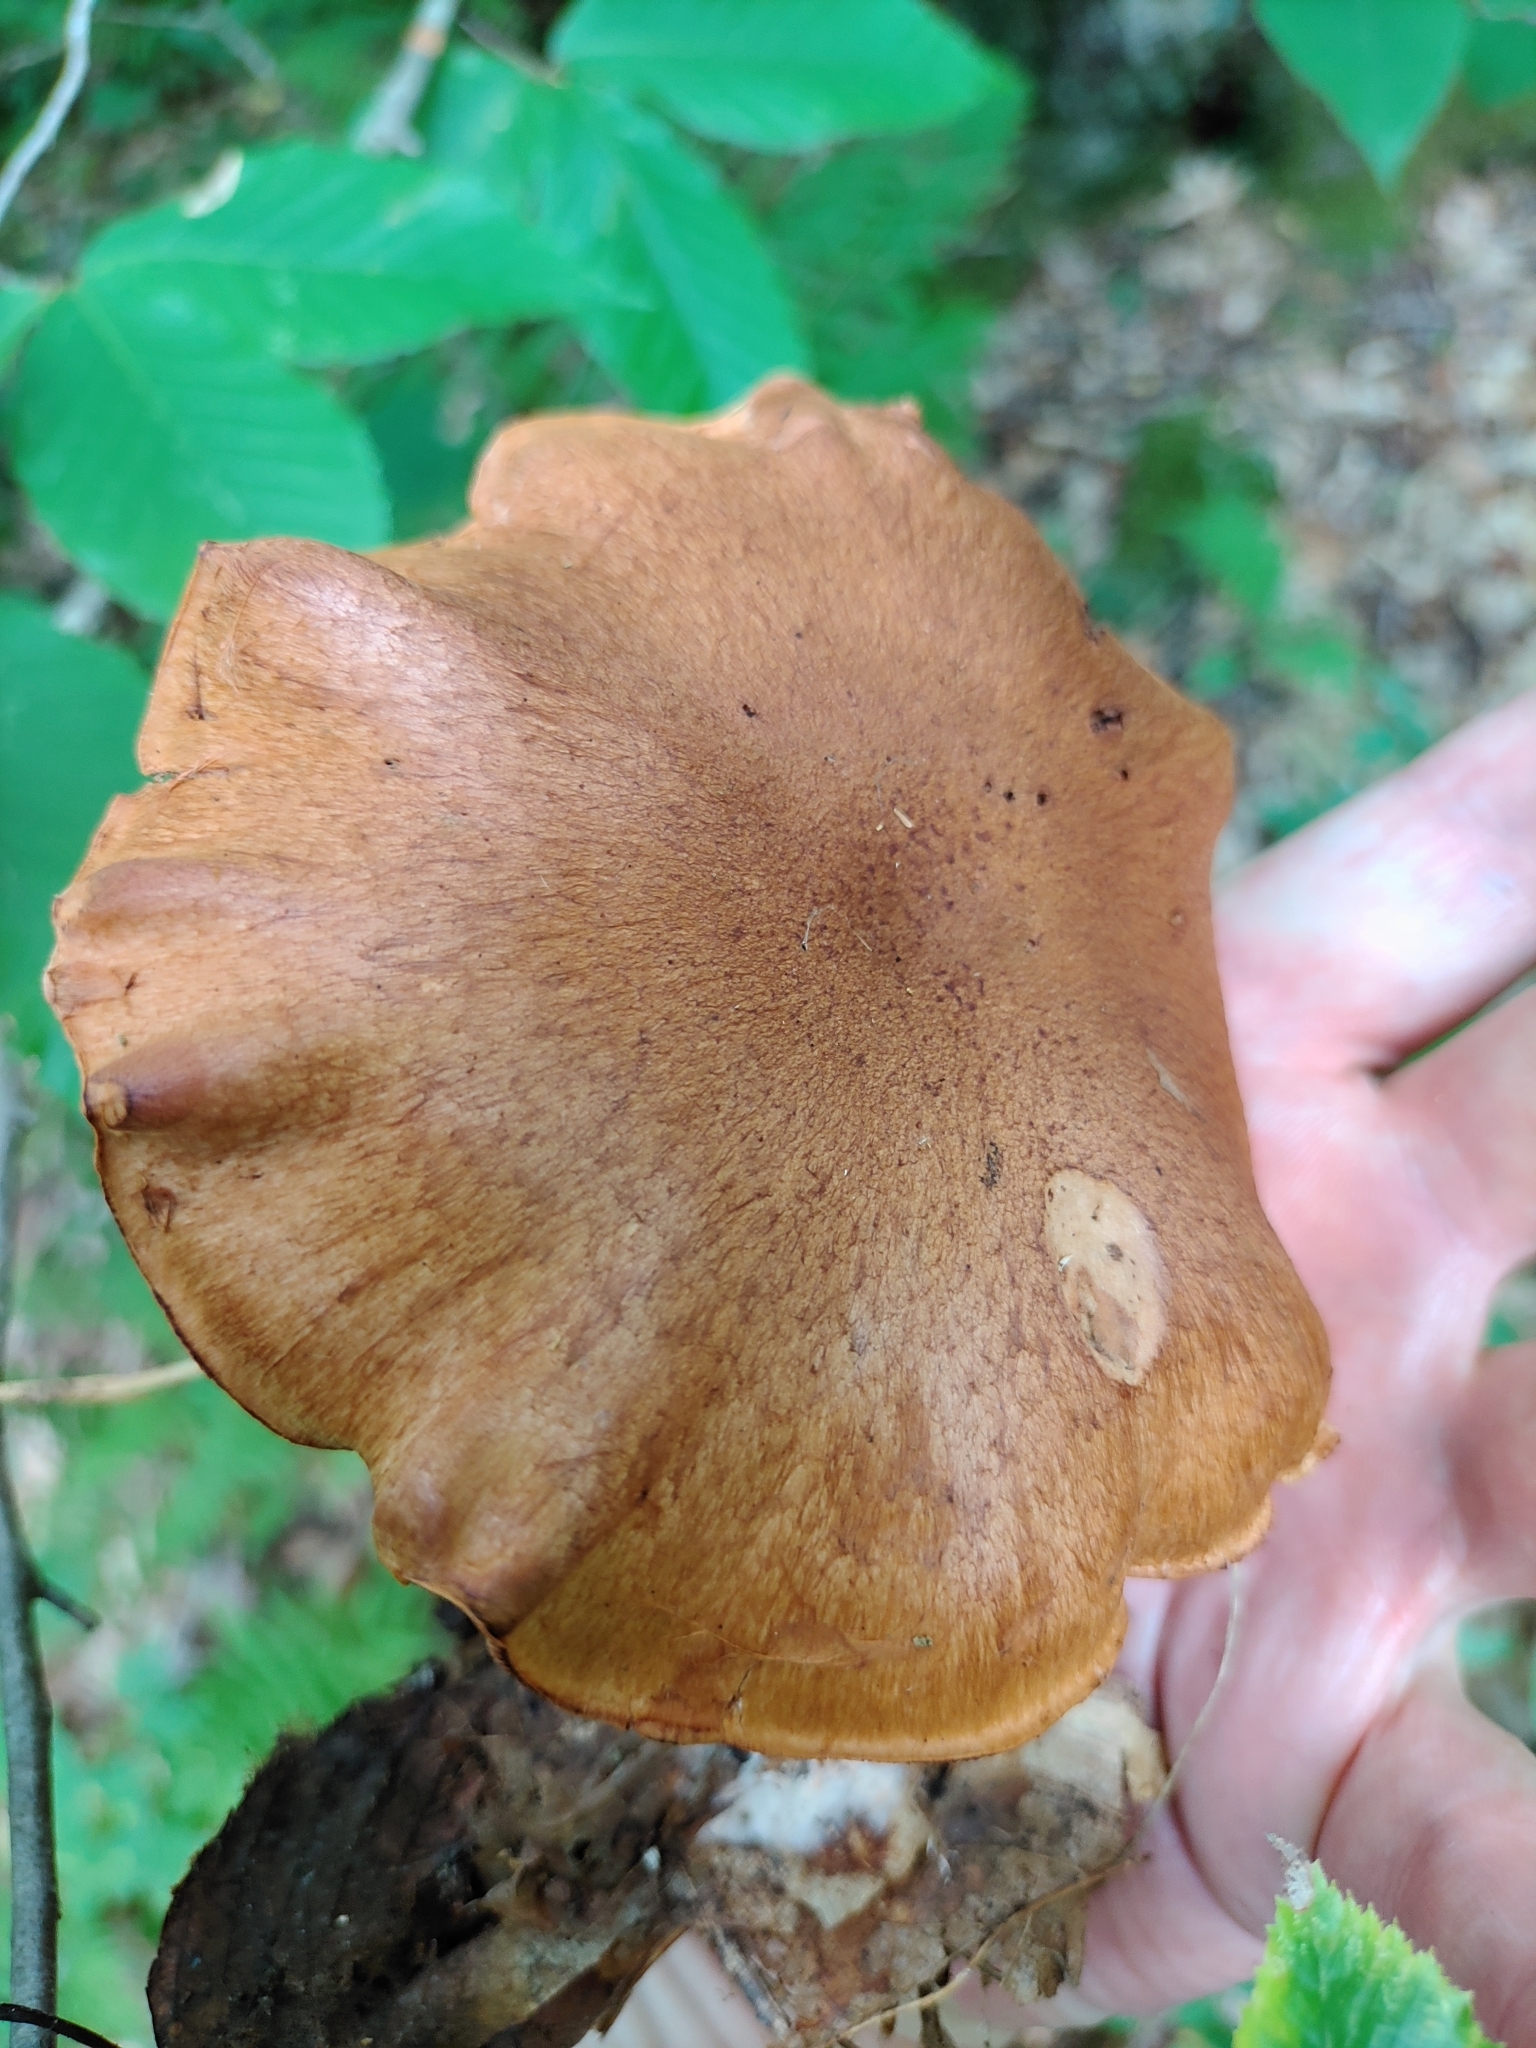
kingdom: Fungi
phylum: Basidiomycota
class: Agaricomycetes
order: Agaricales
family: Cortinariaceae
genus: Cortinarius
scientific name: Cortinarius armillatus
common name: Red banded webcap
